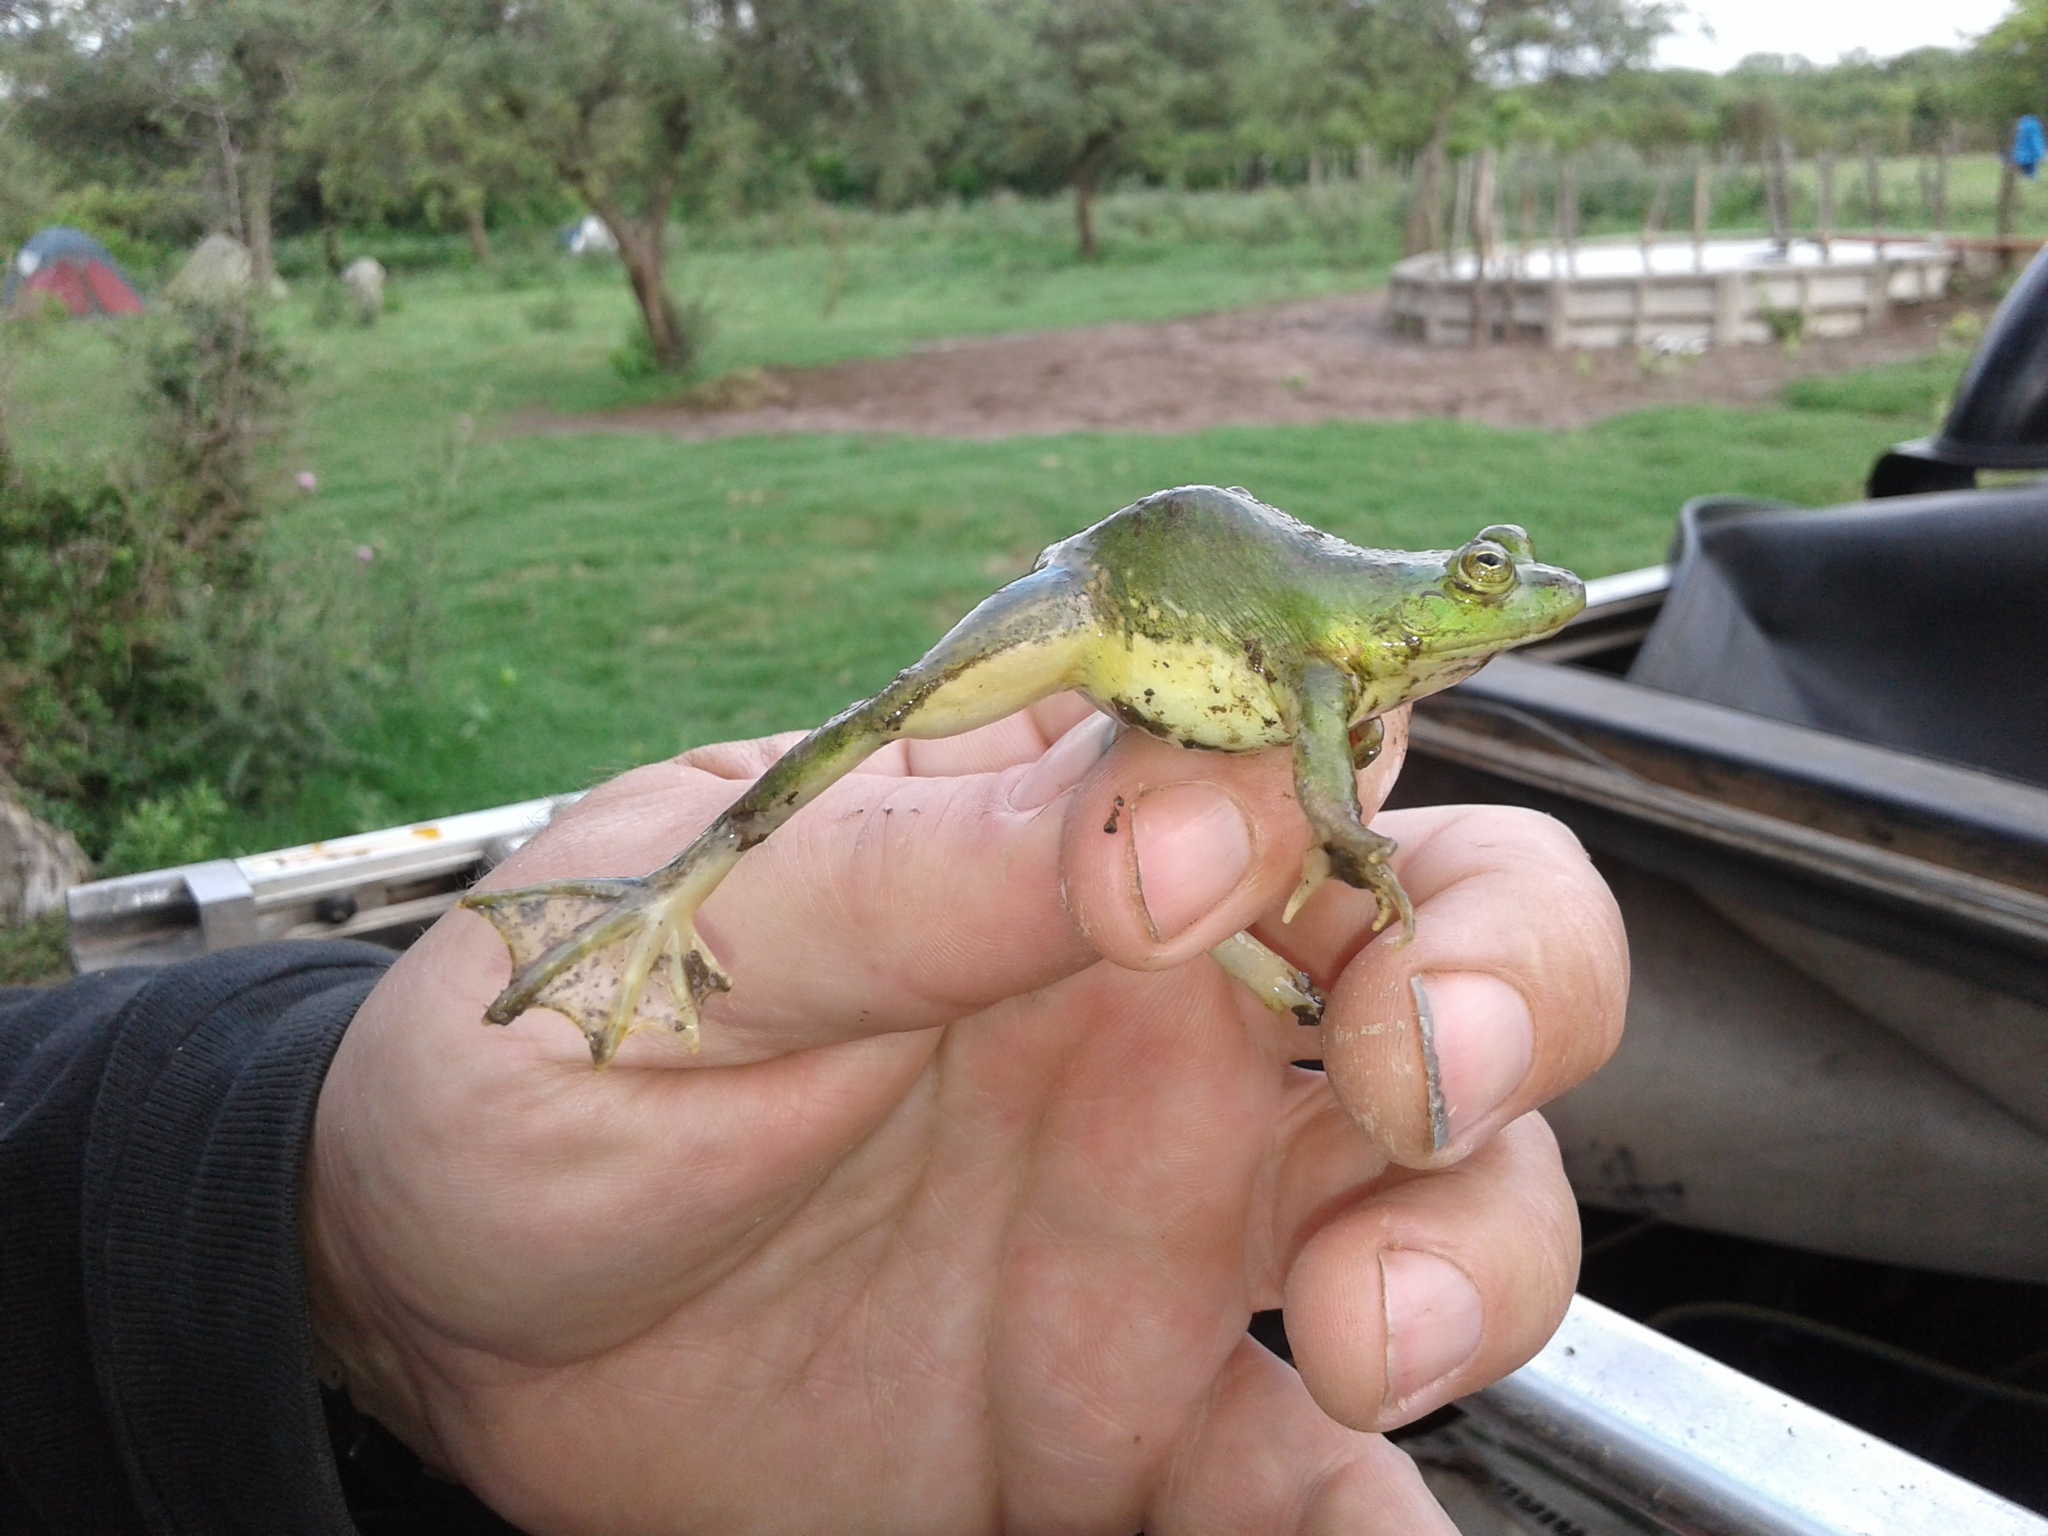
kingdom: Animalia
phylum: Chordata
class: Amphibia
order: Anura
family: Hylidae
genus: Pseudis
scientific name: Pseudis platensis
